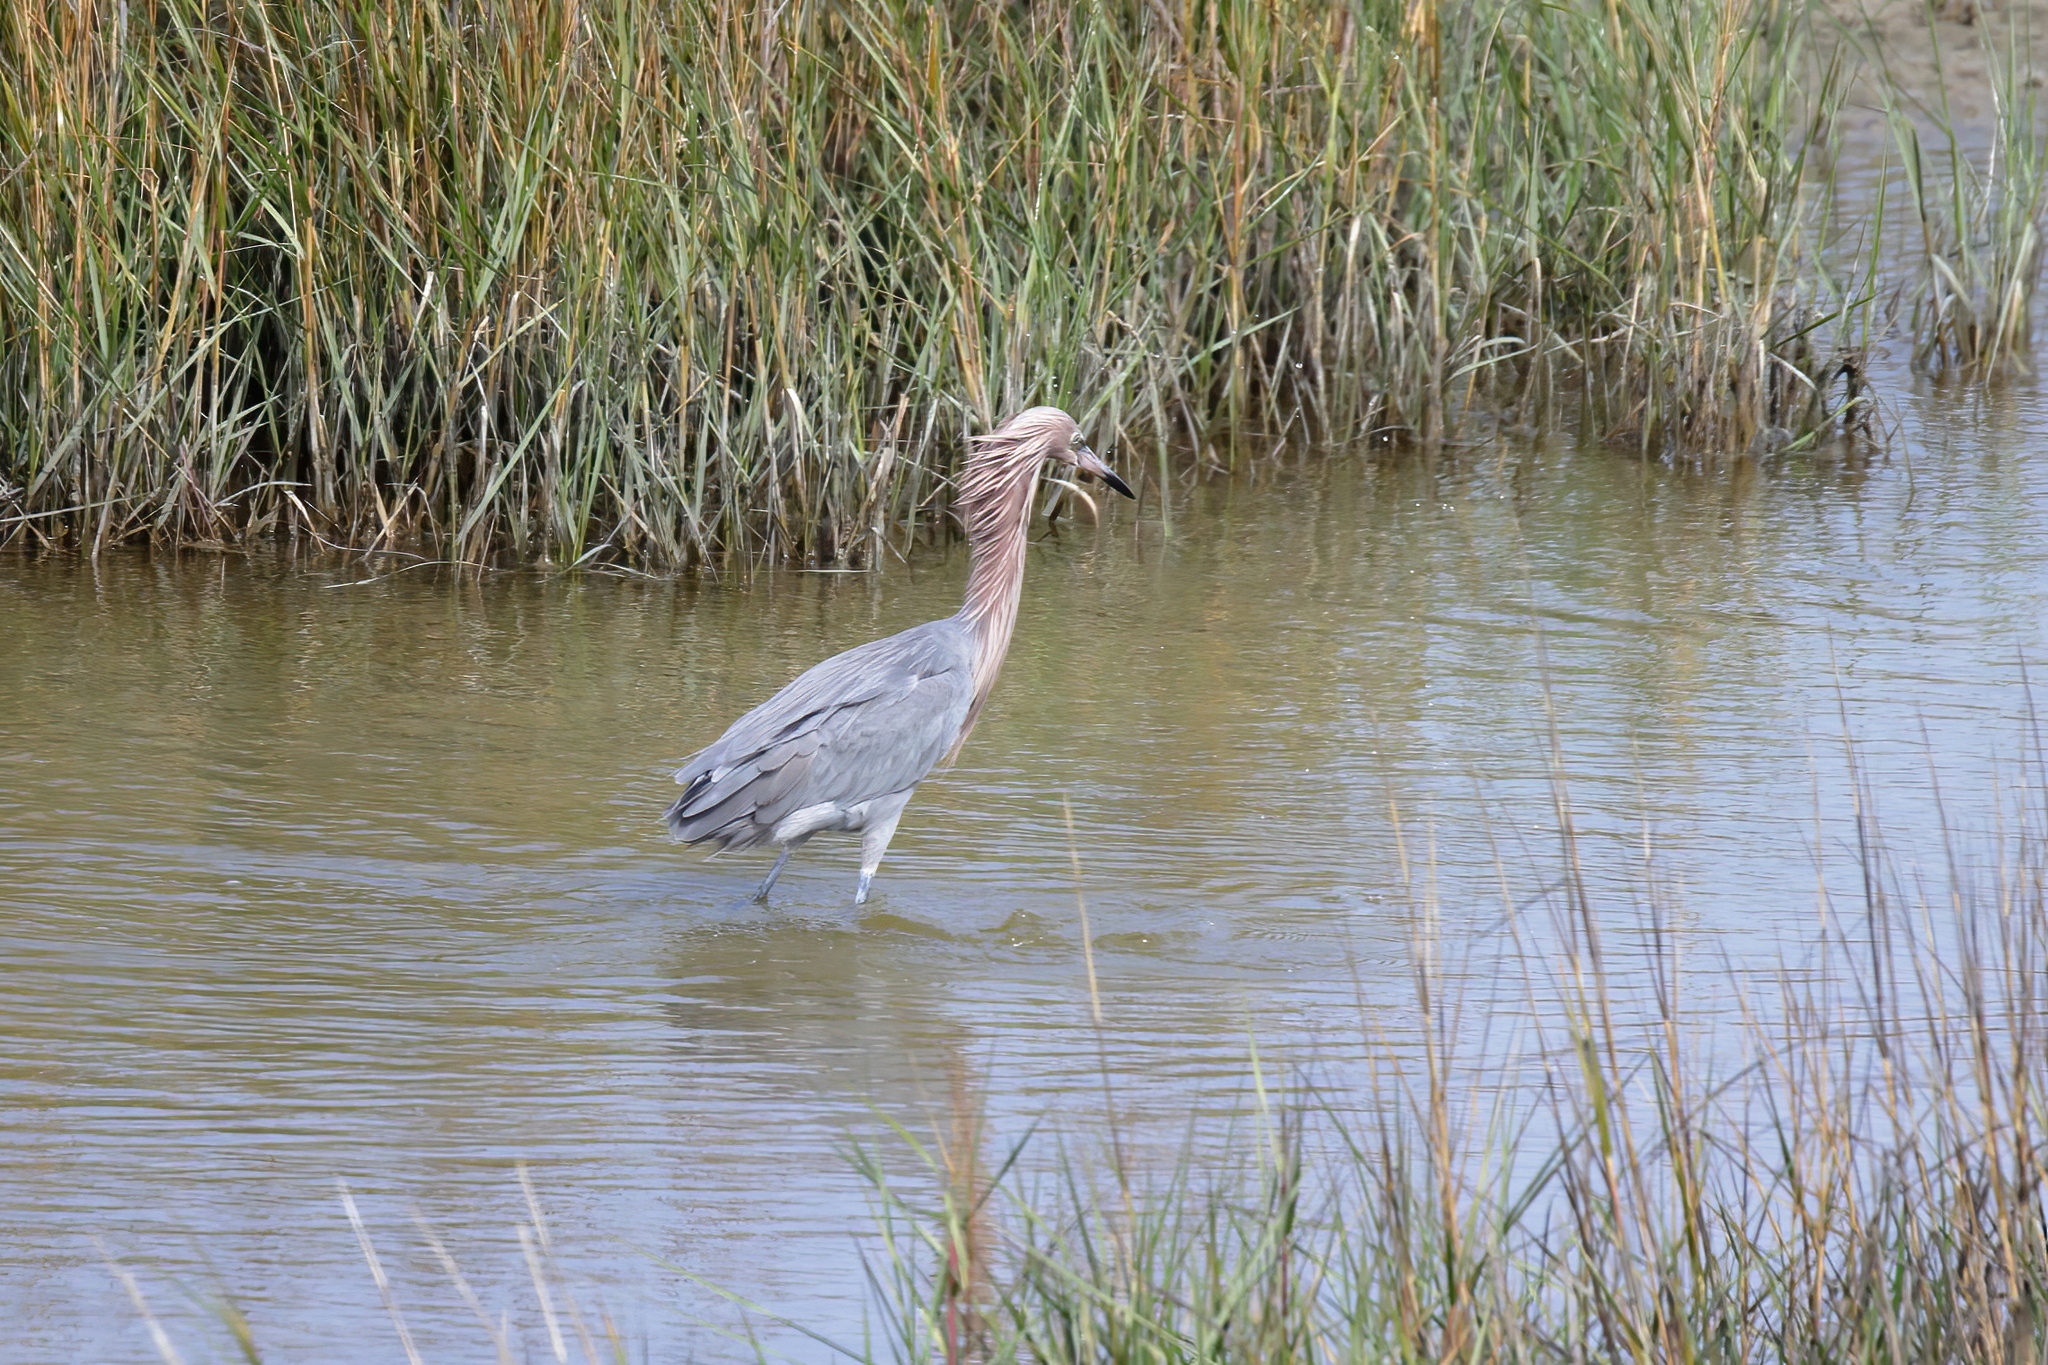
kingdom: Animalia
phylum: Chordata
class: Aves
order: Pelecaniformes
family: Ardeidae
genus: Egretta
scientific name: Egretta rufescens
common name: Reddish egret
